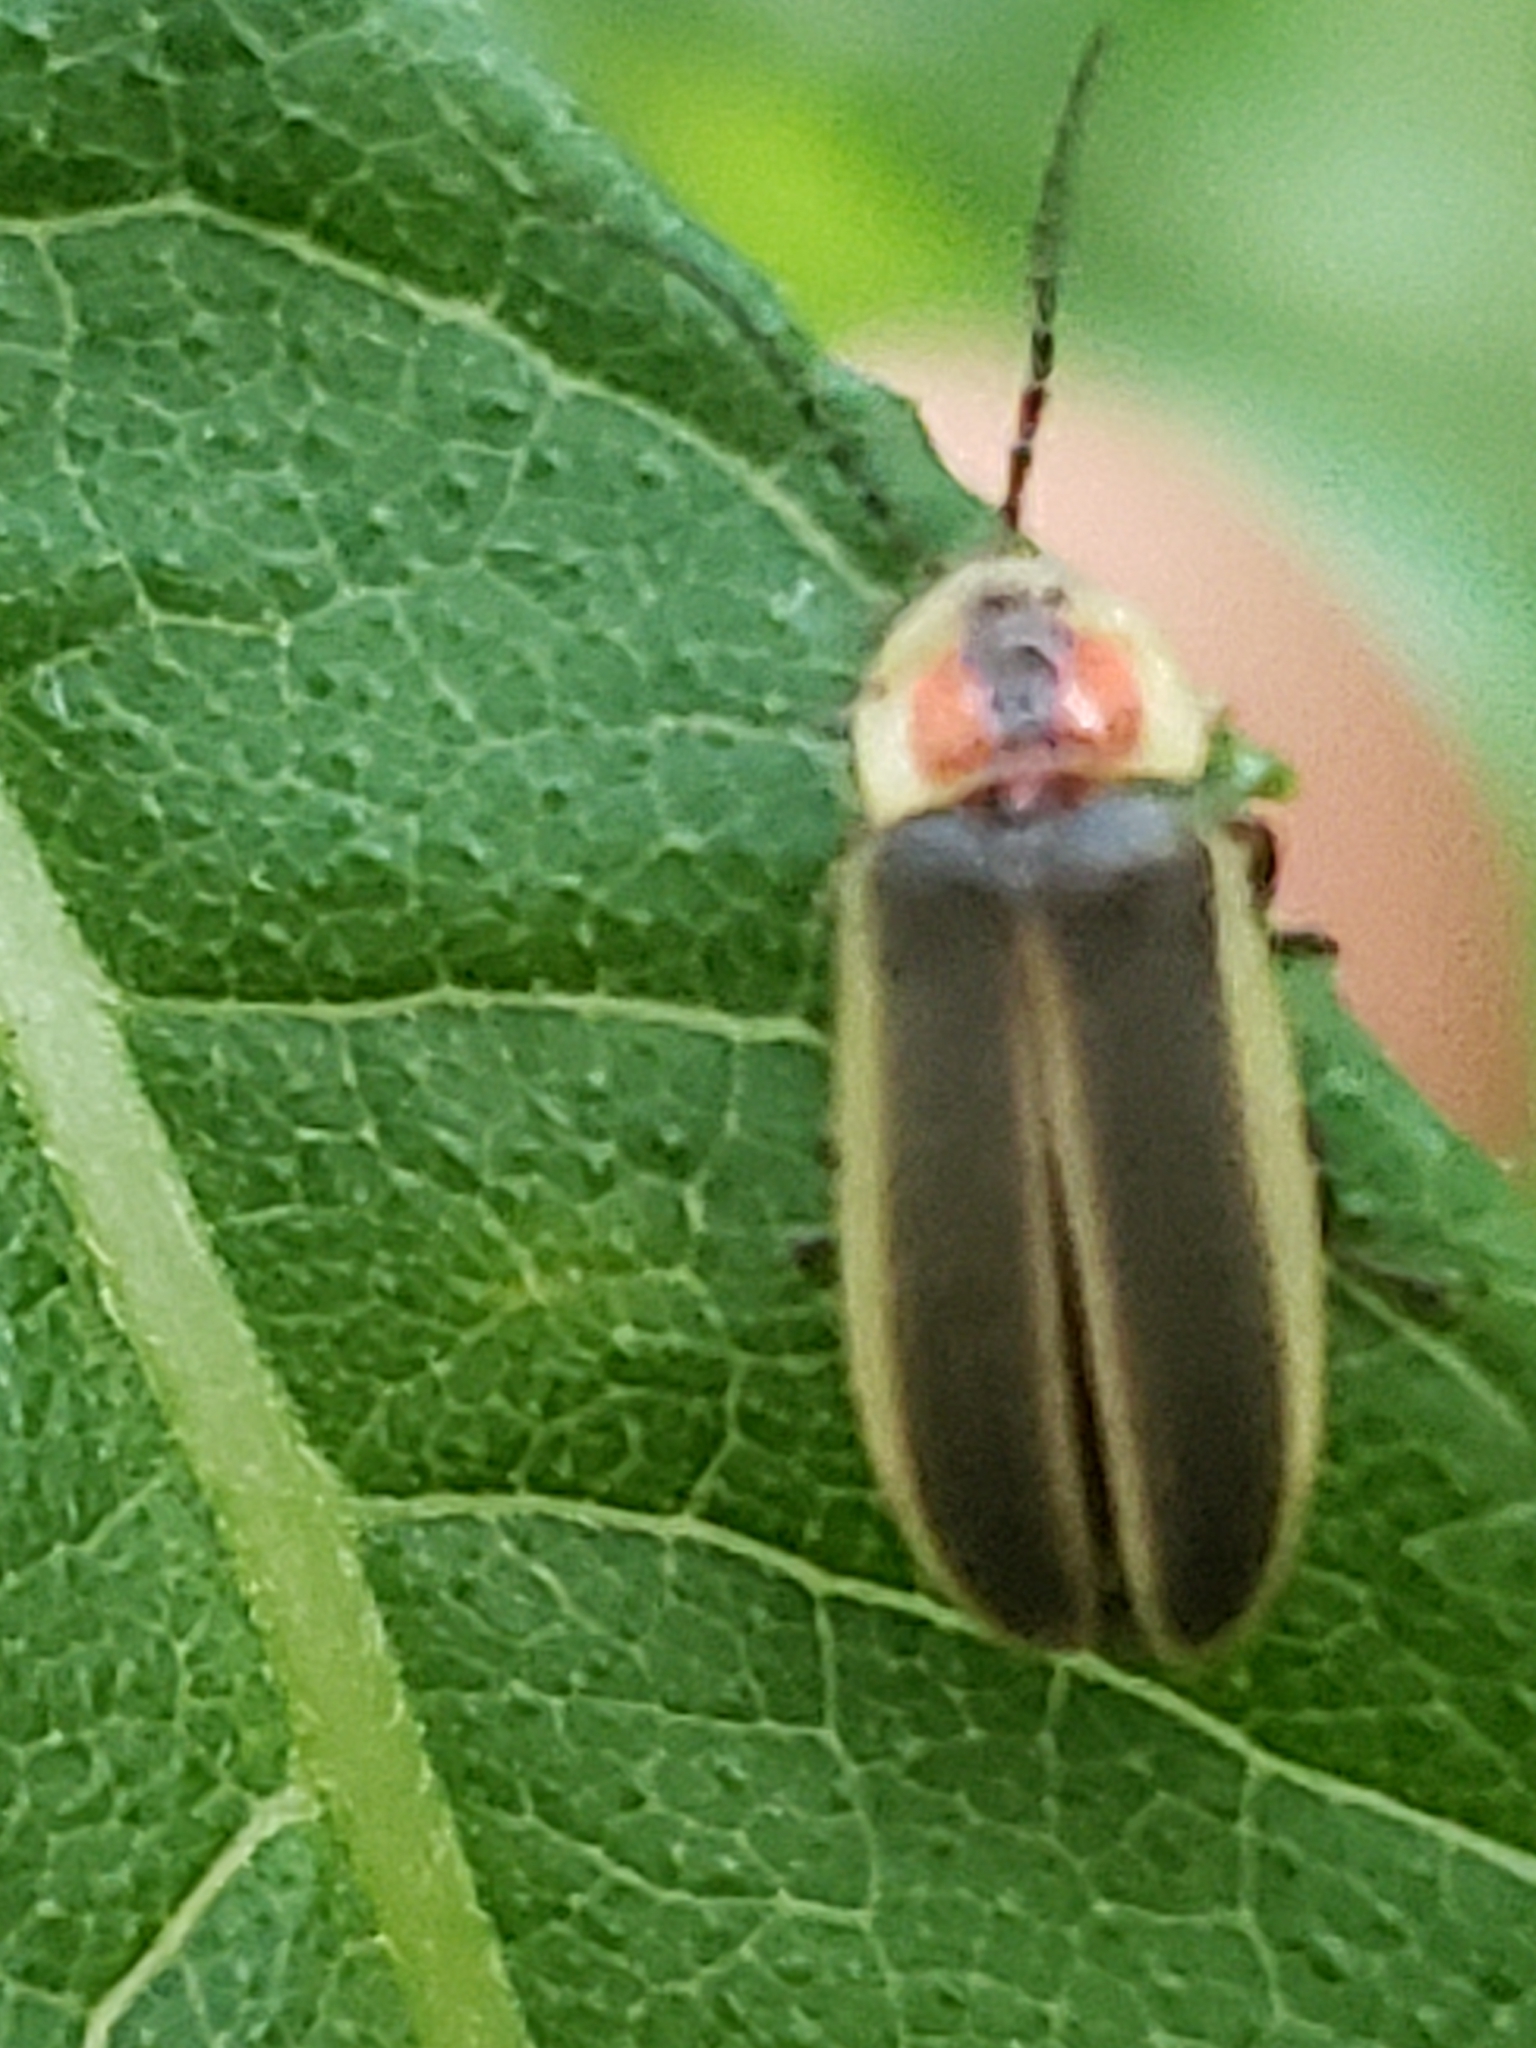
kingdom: Animalia
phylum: Arthropoda
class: Insecta
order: Coleoptera
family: Lampyridae
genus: Photinus
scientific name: Photinus pyralis
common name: Big dipper firefly
